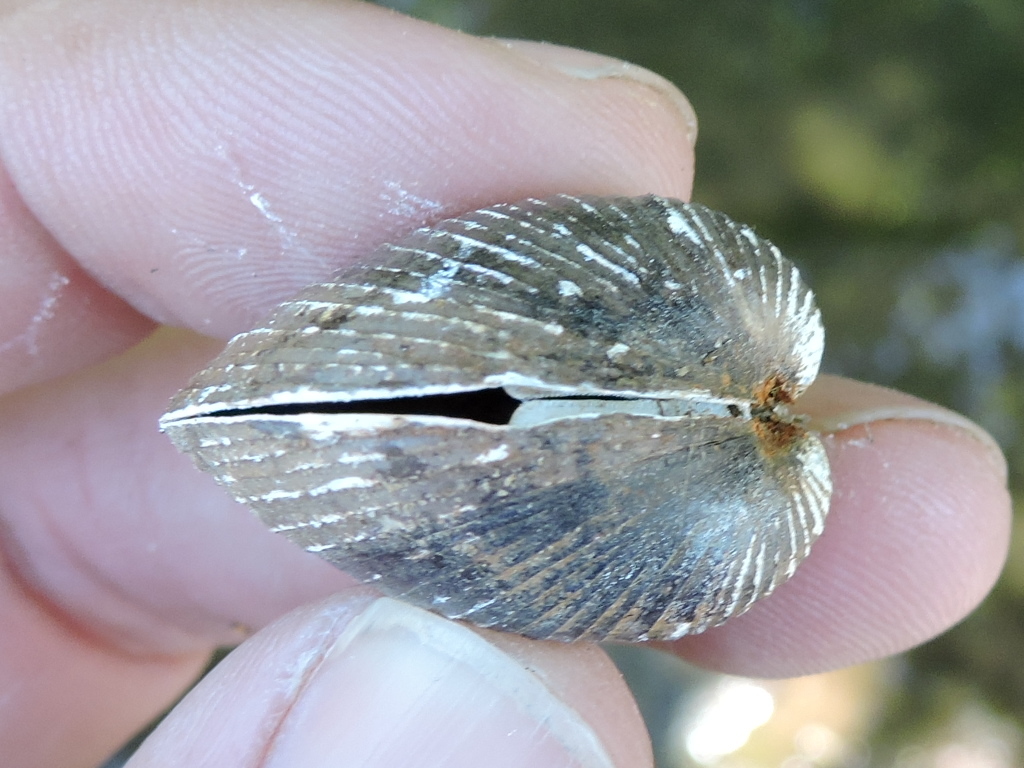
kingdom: Animalia
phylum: Mollusca
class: Bivalvia
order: Venerida
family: Cyrenidae
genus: Corbicula
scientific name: Corbicula fluminea
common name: Asian clam
